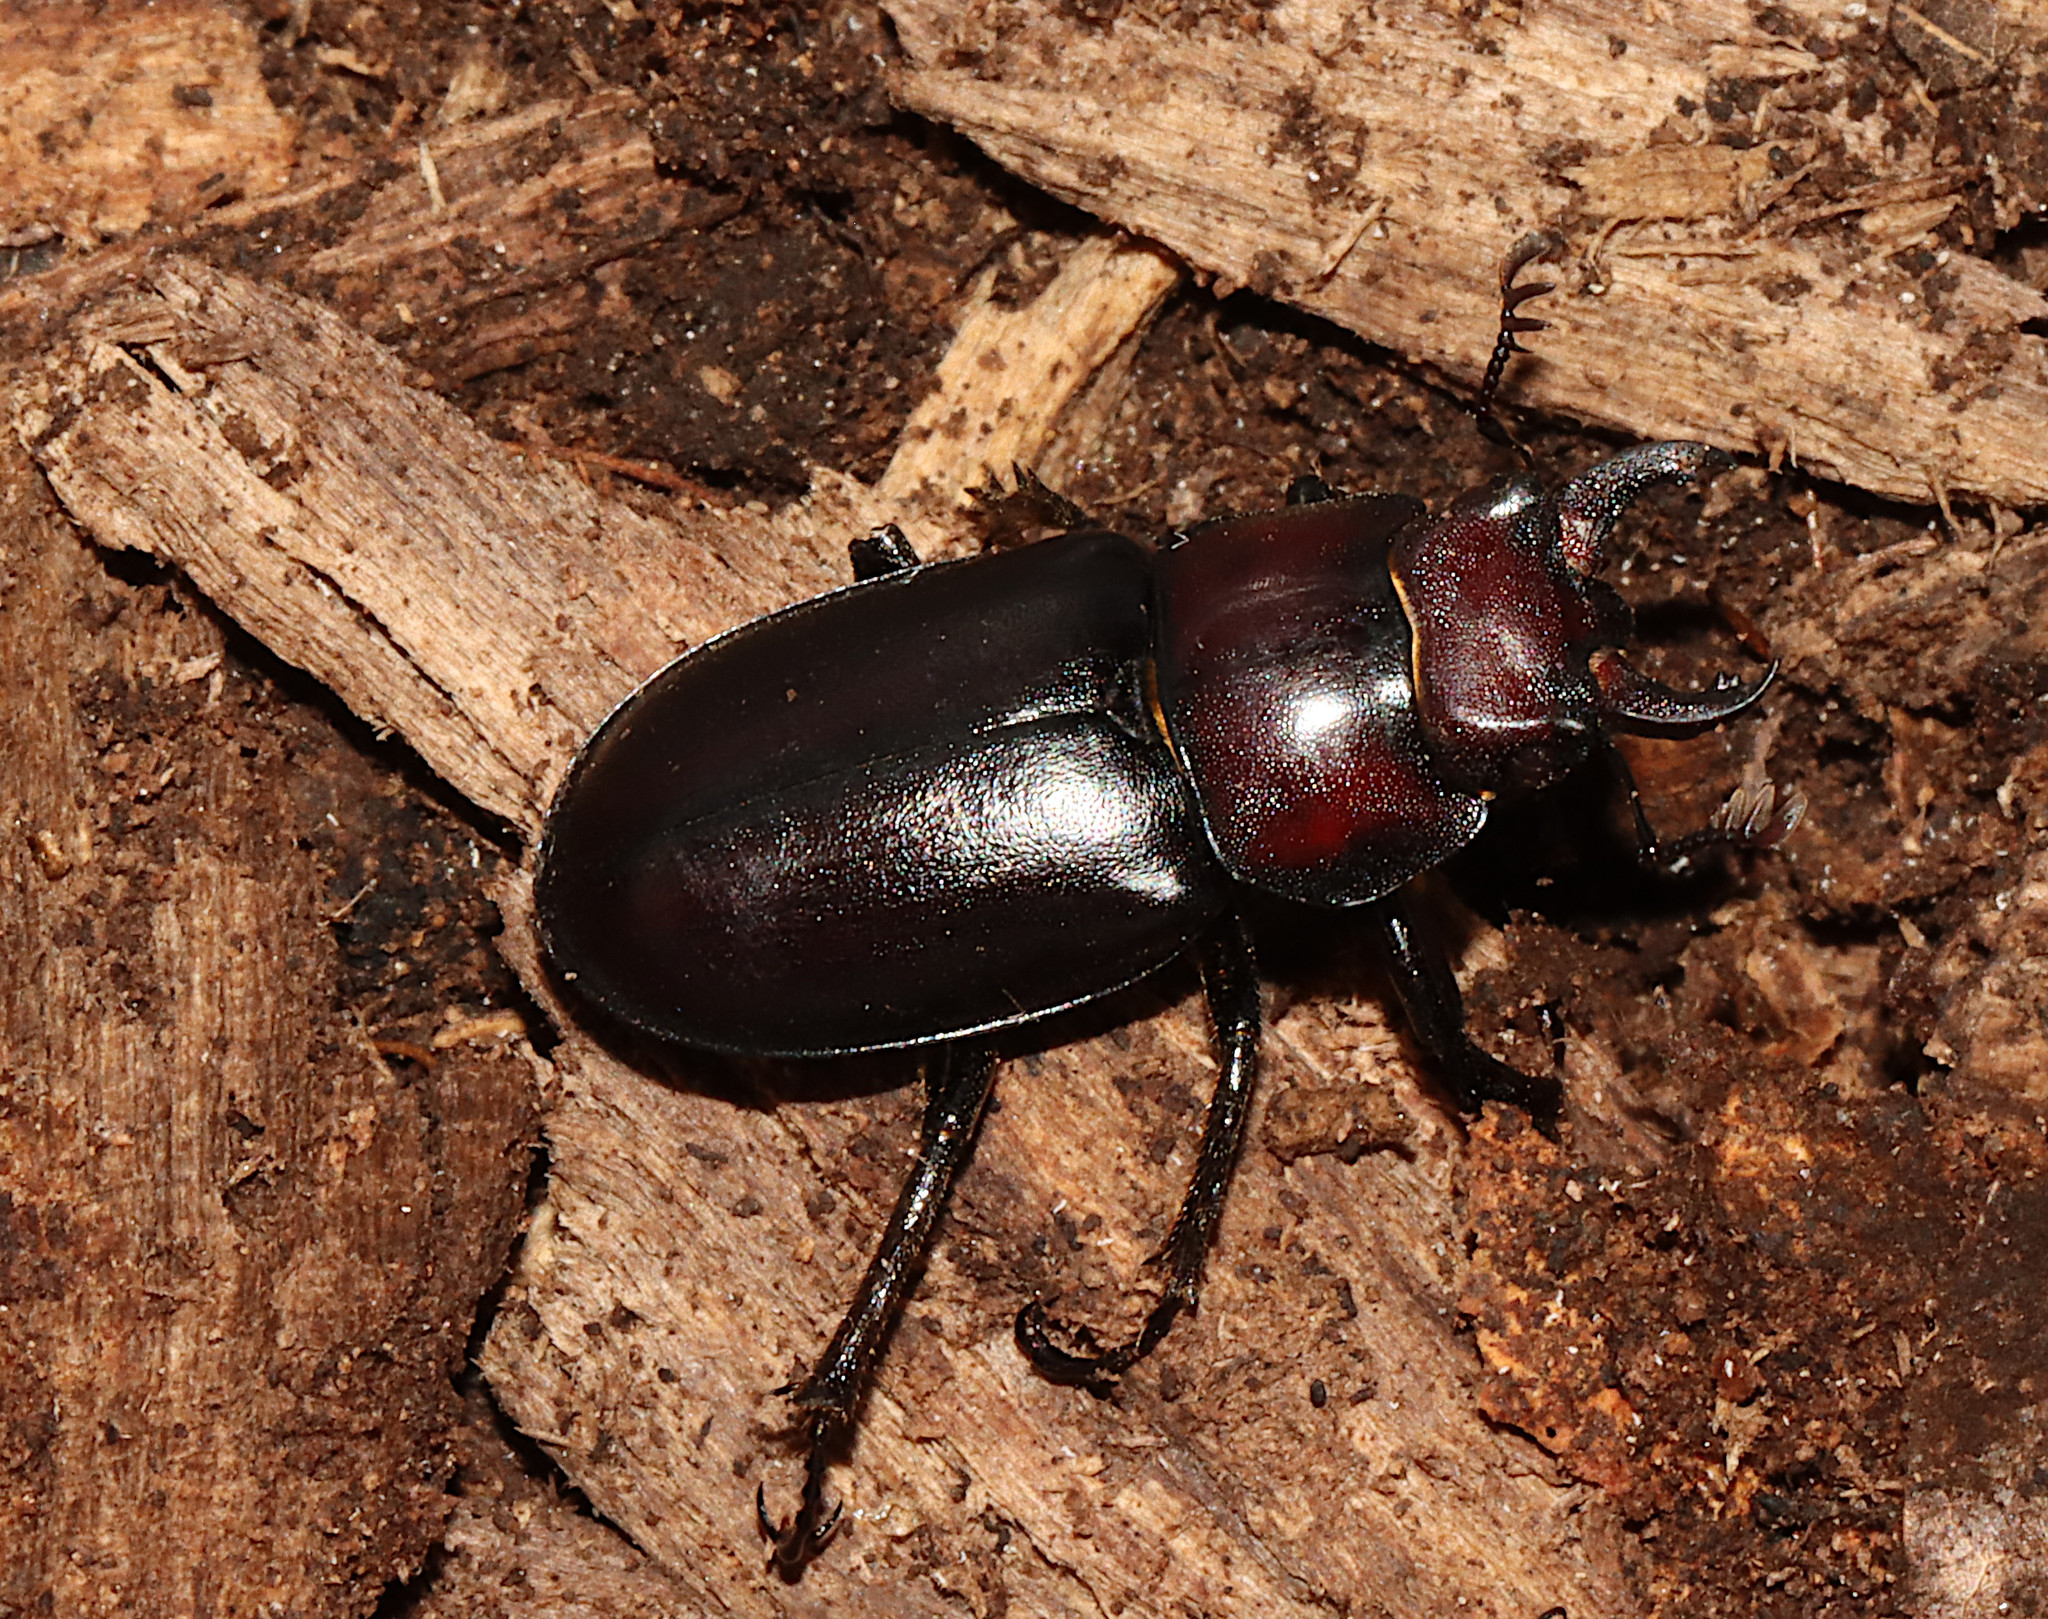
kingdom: Animalia
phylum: Arthropoda
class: Insecta
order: Coleoptera
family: Lucanidae
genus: Lucanus
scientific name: Lucanus placidus
